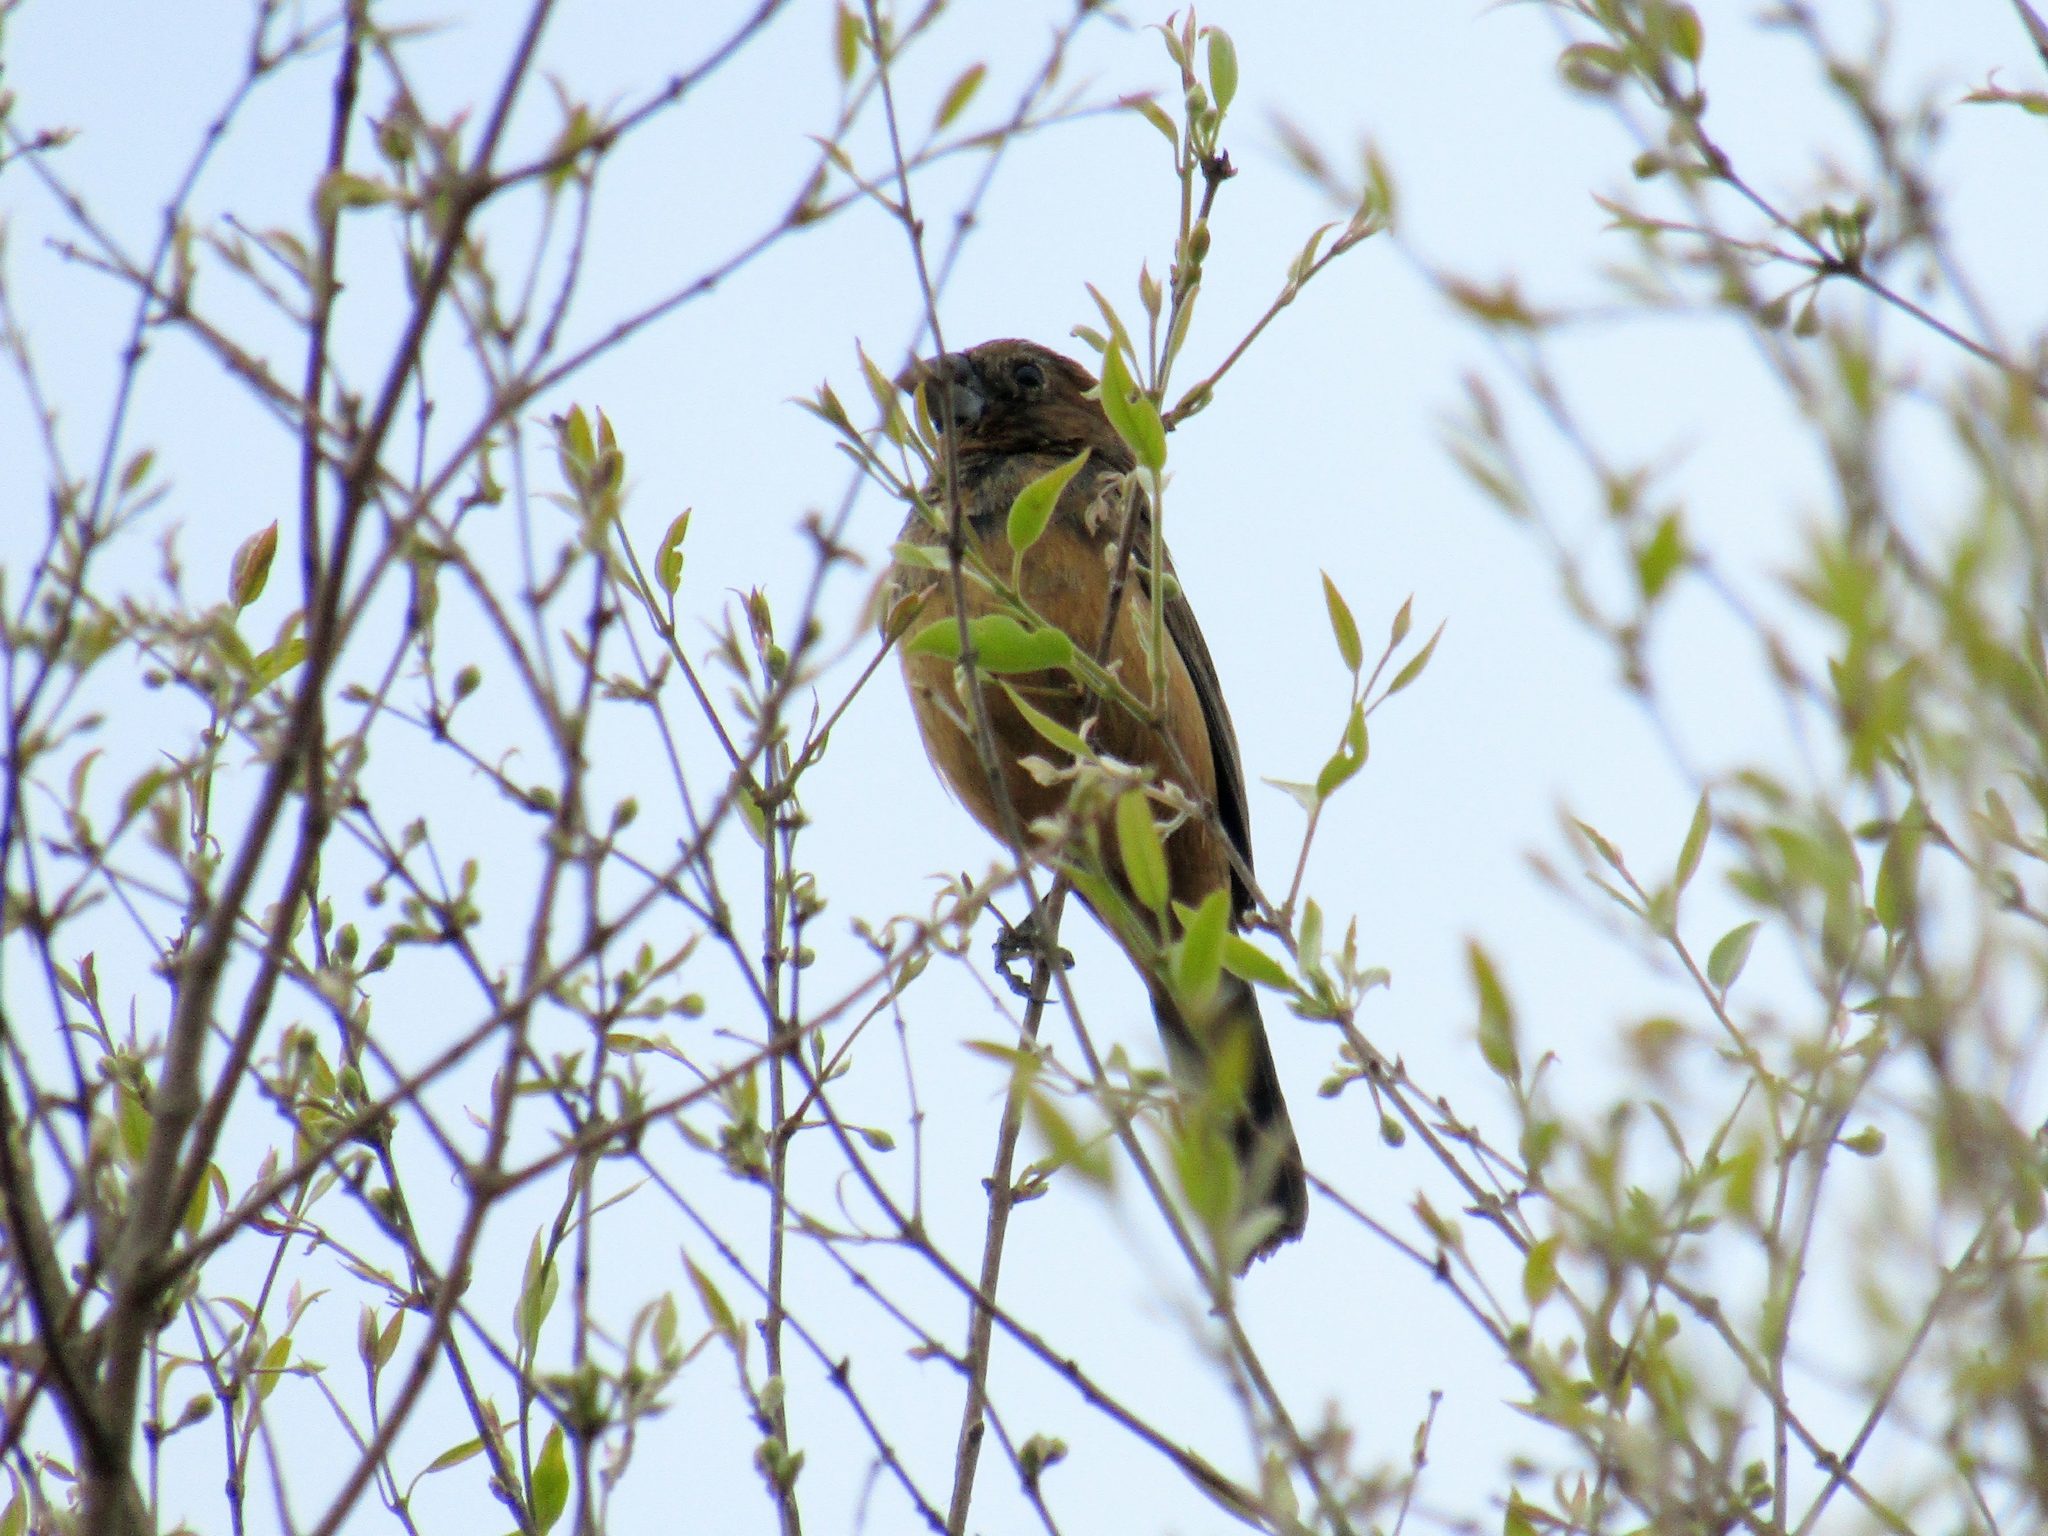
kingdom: Animalia
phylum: Chordata
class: Aves
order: Passeriformes
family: Cardinalidae
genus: Cyanoloxia
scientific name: Cyanoloxia glaucocaerulea
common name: Glaucous-blue grosbeak
